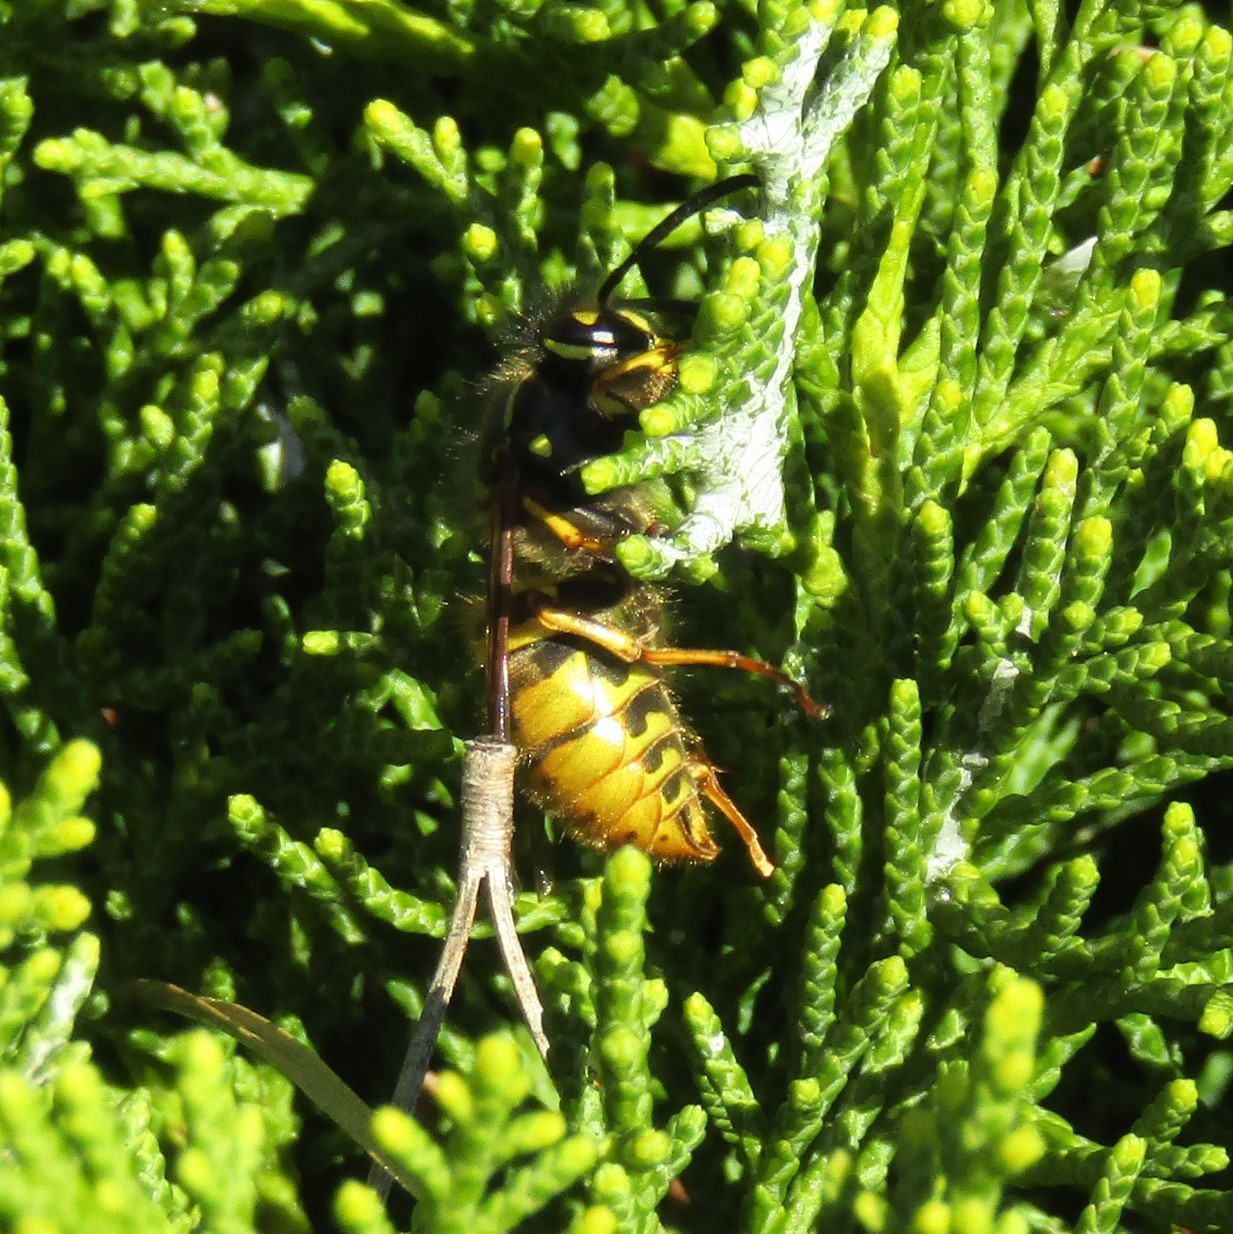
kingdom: Animalia
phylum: Arthropoda
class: Insecta
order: Hymenoptera
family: Vespidae
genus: Vespula
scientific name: Vespula vulgaris
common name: Common wasp
